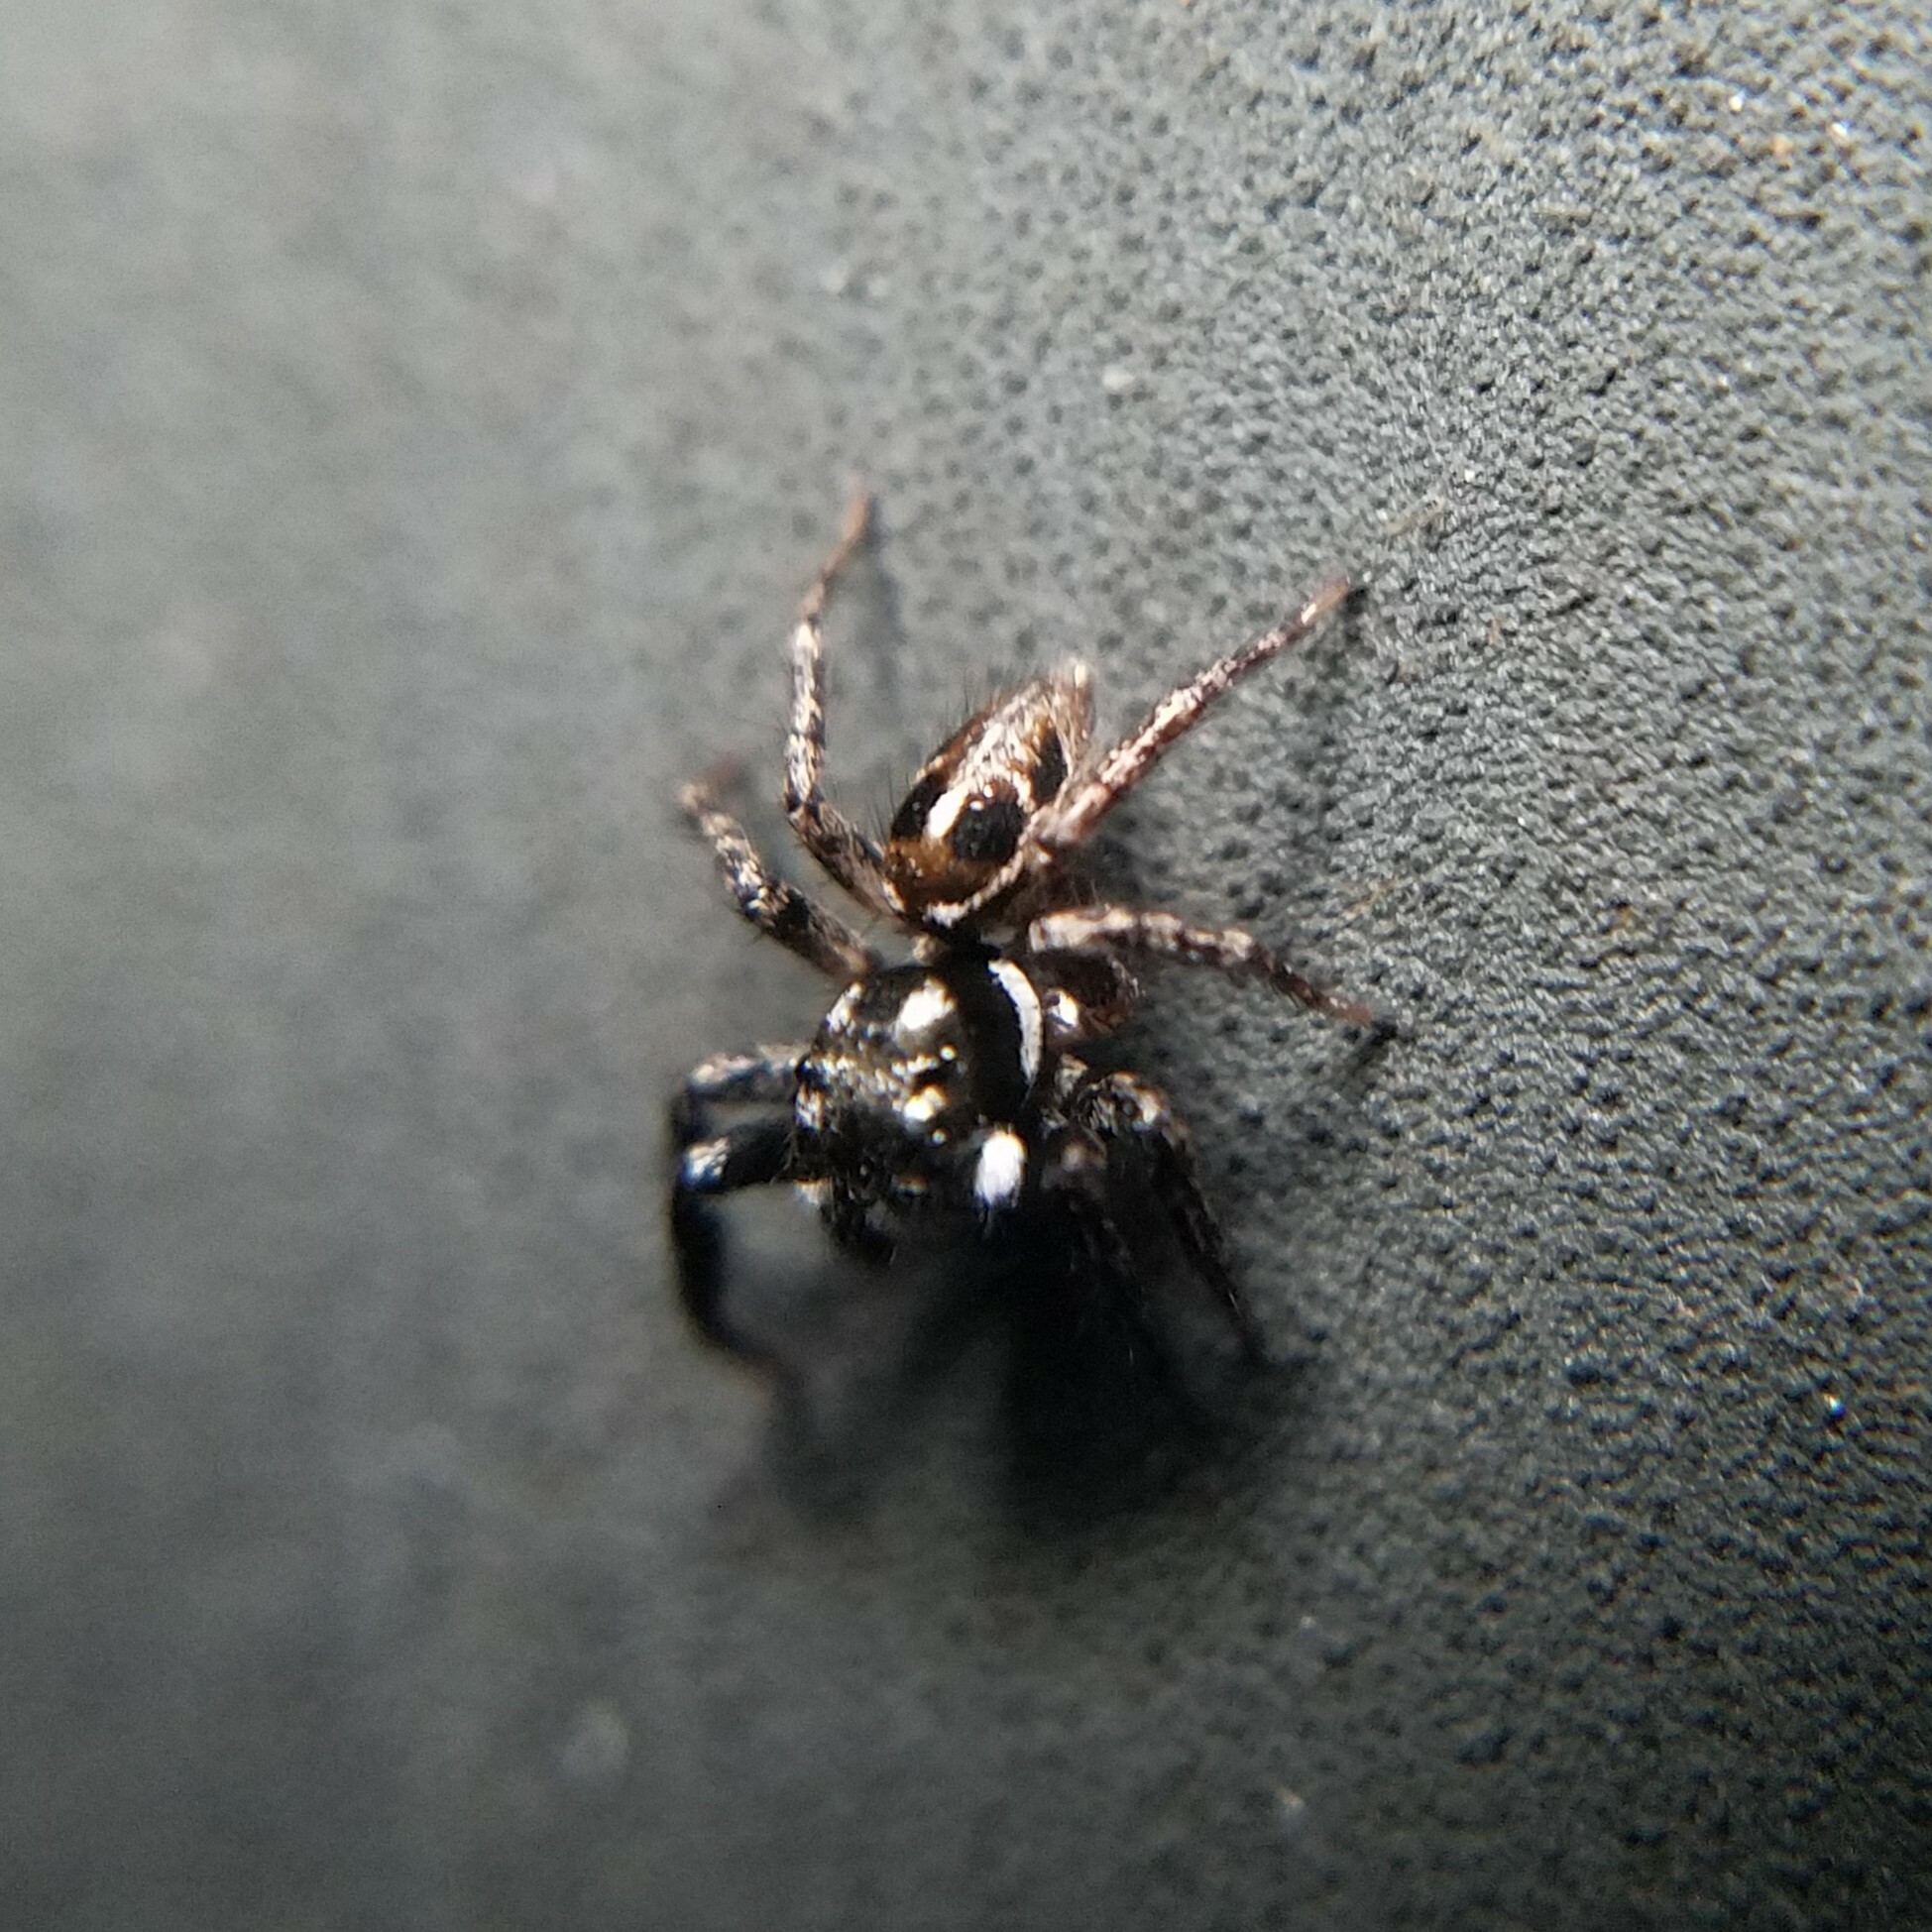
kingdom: Animalia
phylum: Arthropoda
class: Arachnida
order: Araneae
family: Salticidae
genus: Anasaitis
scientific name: Anasaitis canosa
